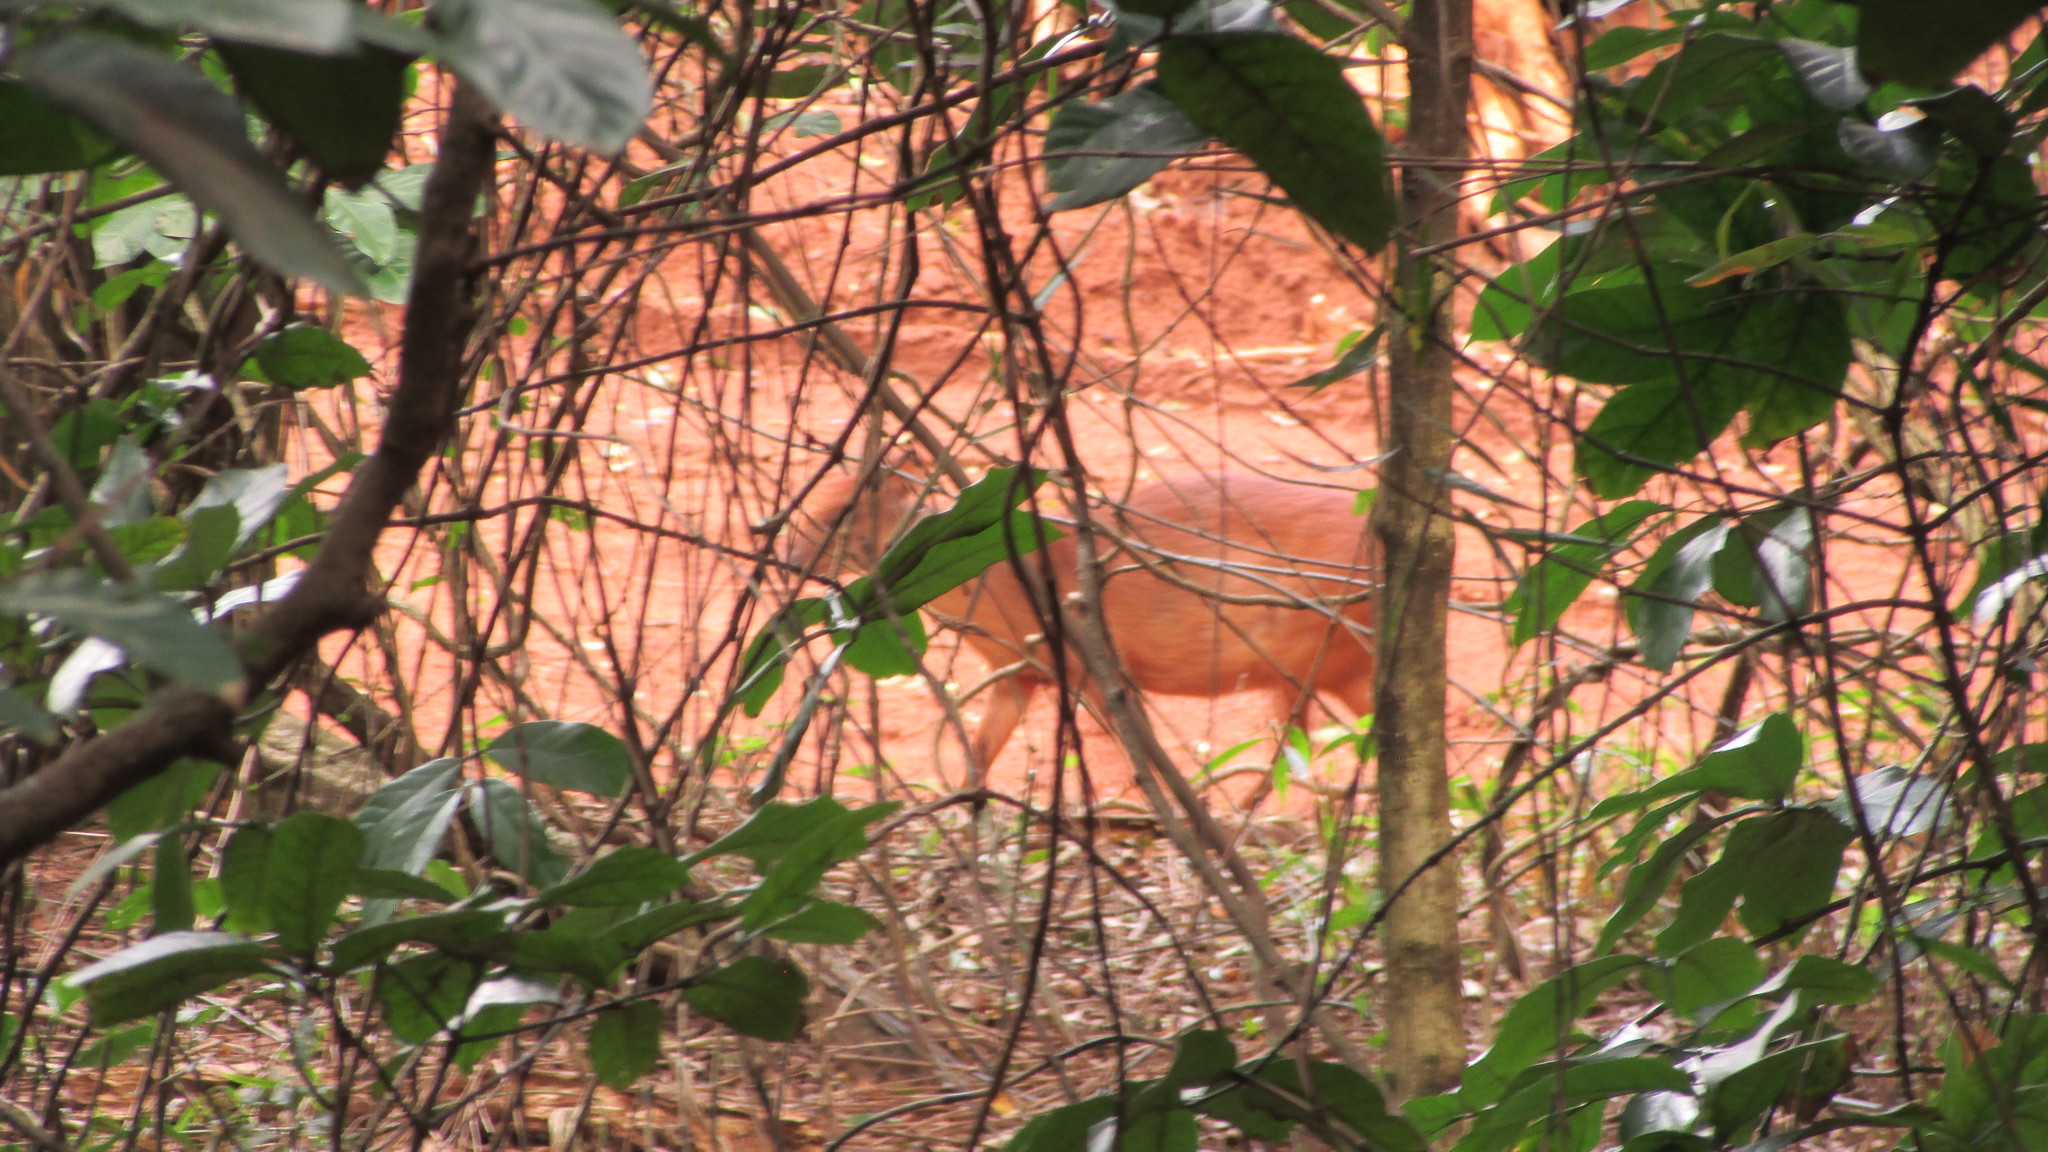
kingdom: Animalia
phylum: Chordata
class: Mammalia
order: Artiodactyla
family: Bovidae
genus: Cephalophus
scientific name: Cephalophus natalensis
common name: Red duiker
